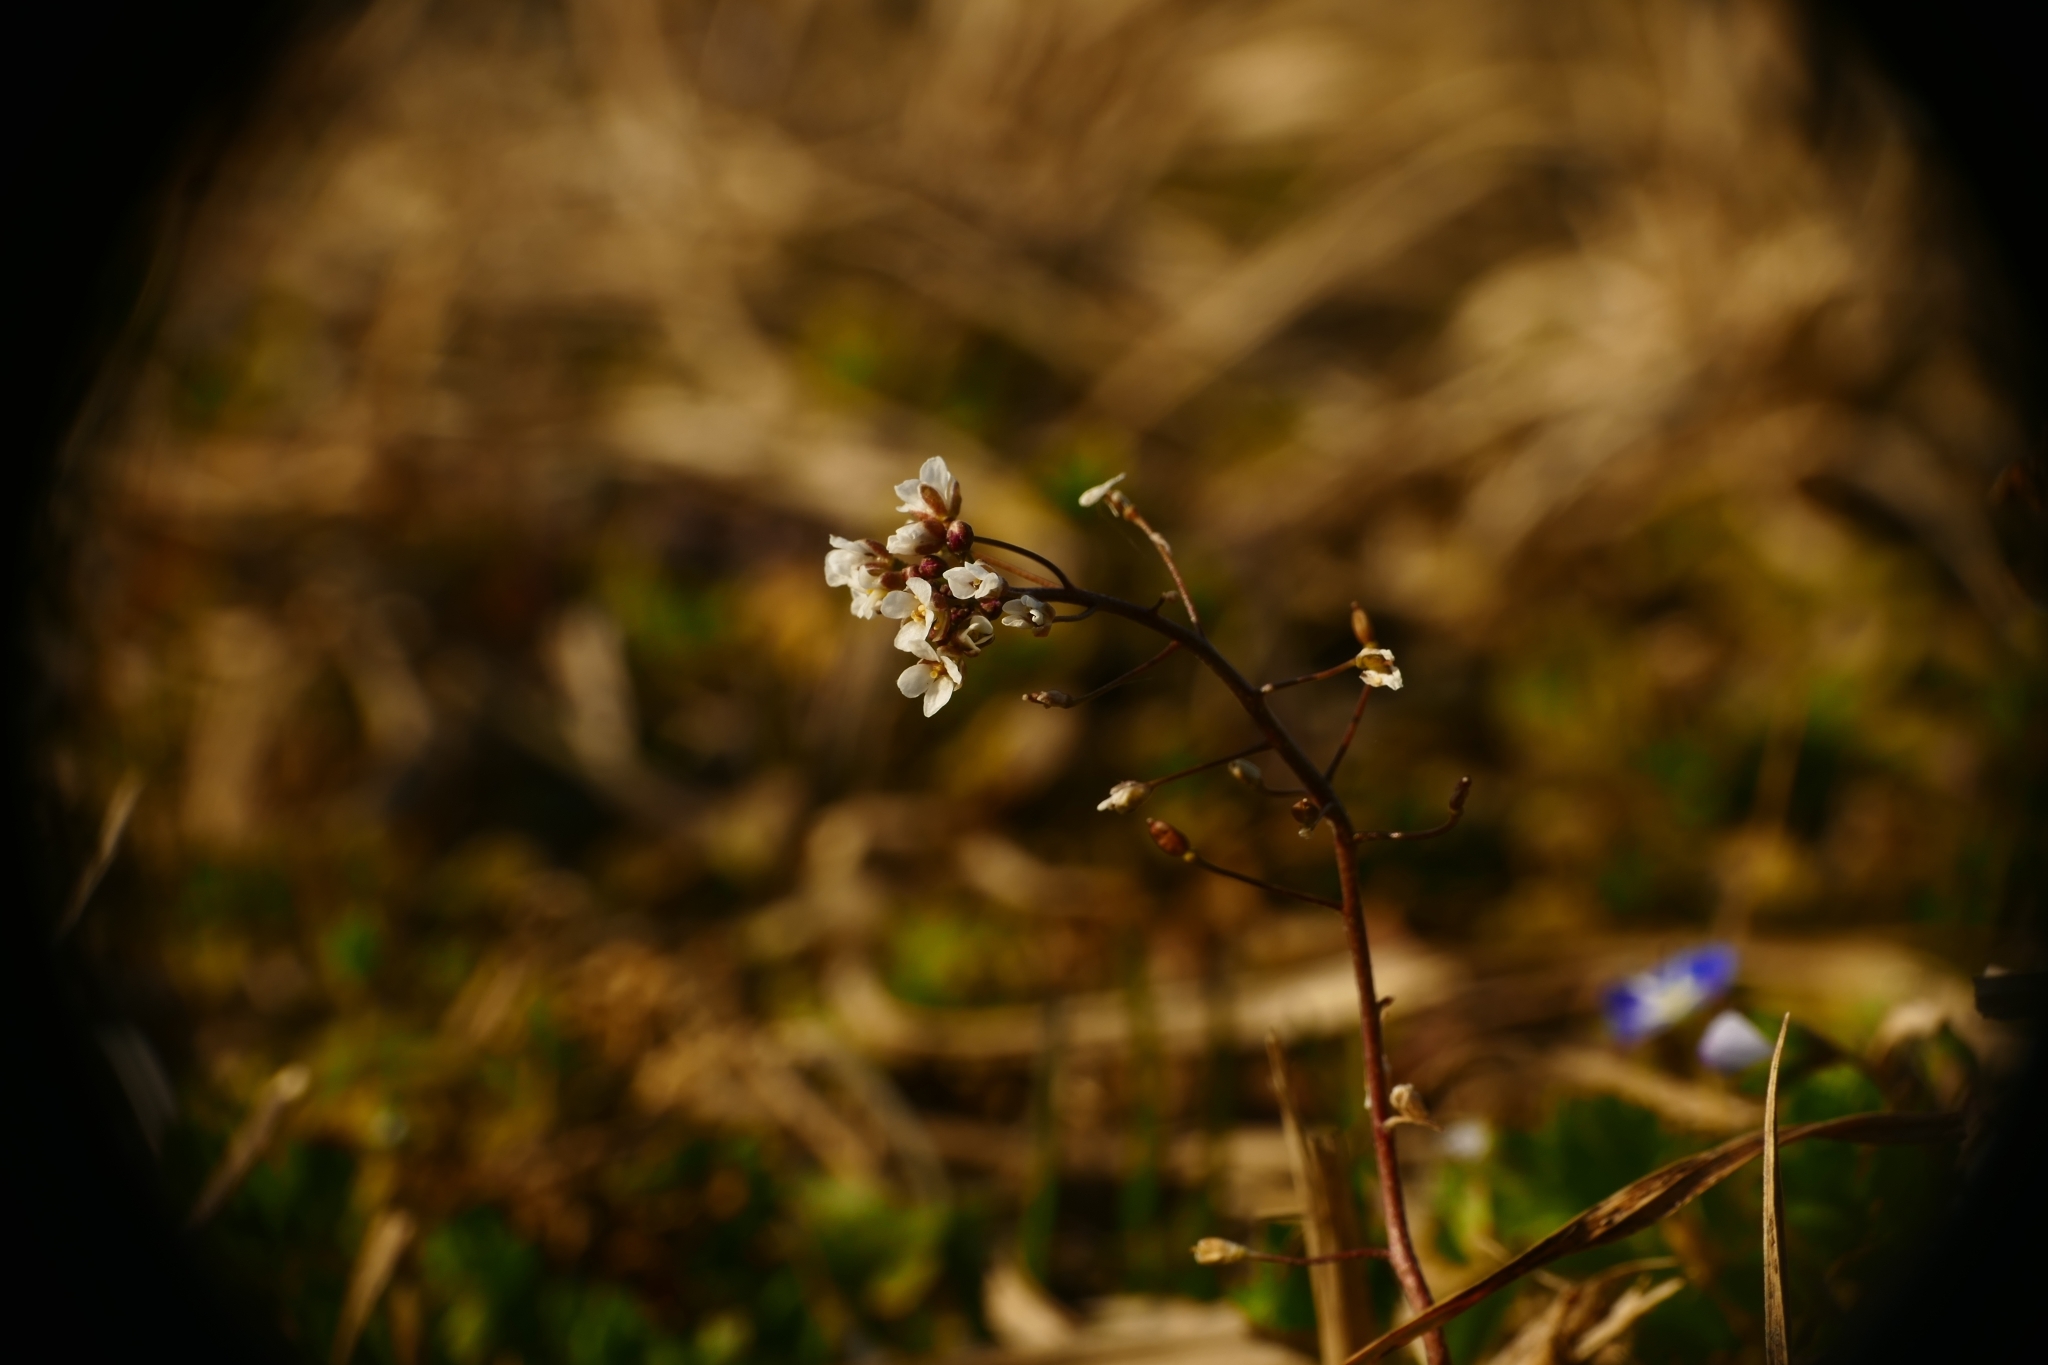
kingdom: Plantae
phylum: Tracheophyta
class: Magnoliopsida
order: Brassicales
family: Brassicaceae
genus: Capsella
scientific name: Capsella bursa-pastoris
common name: Shepherd's purse
